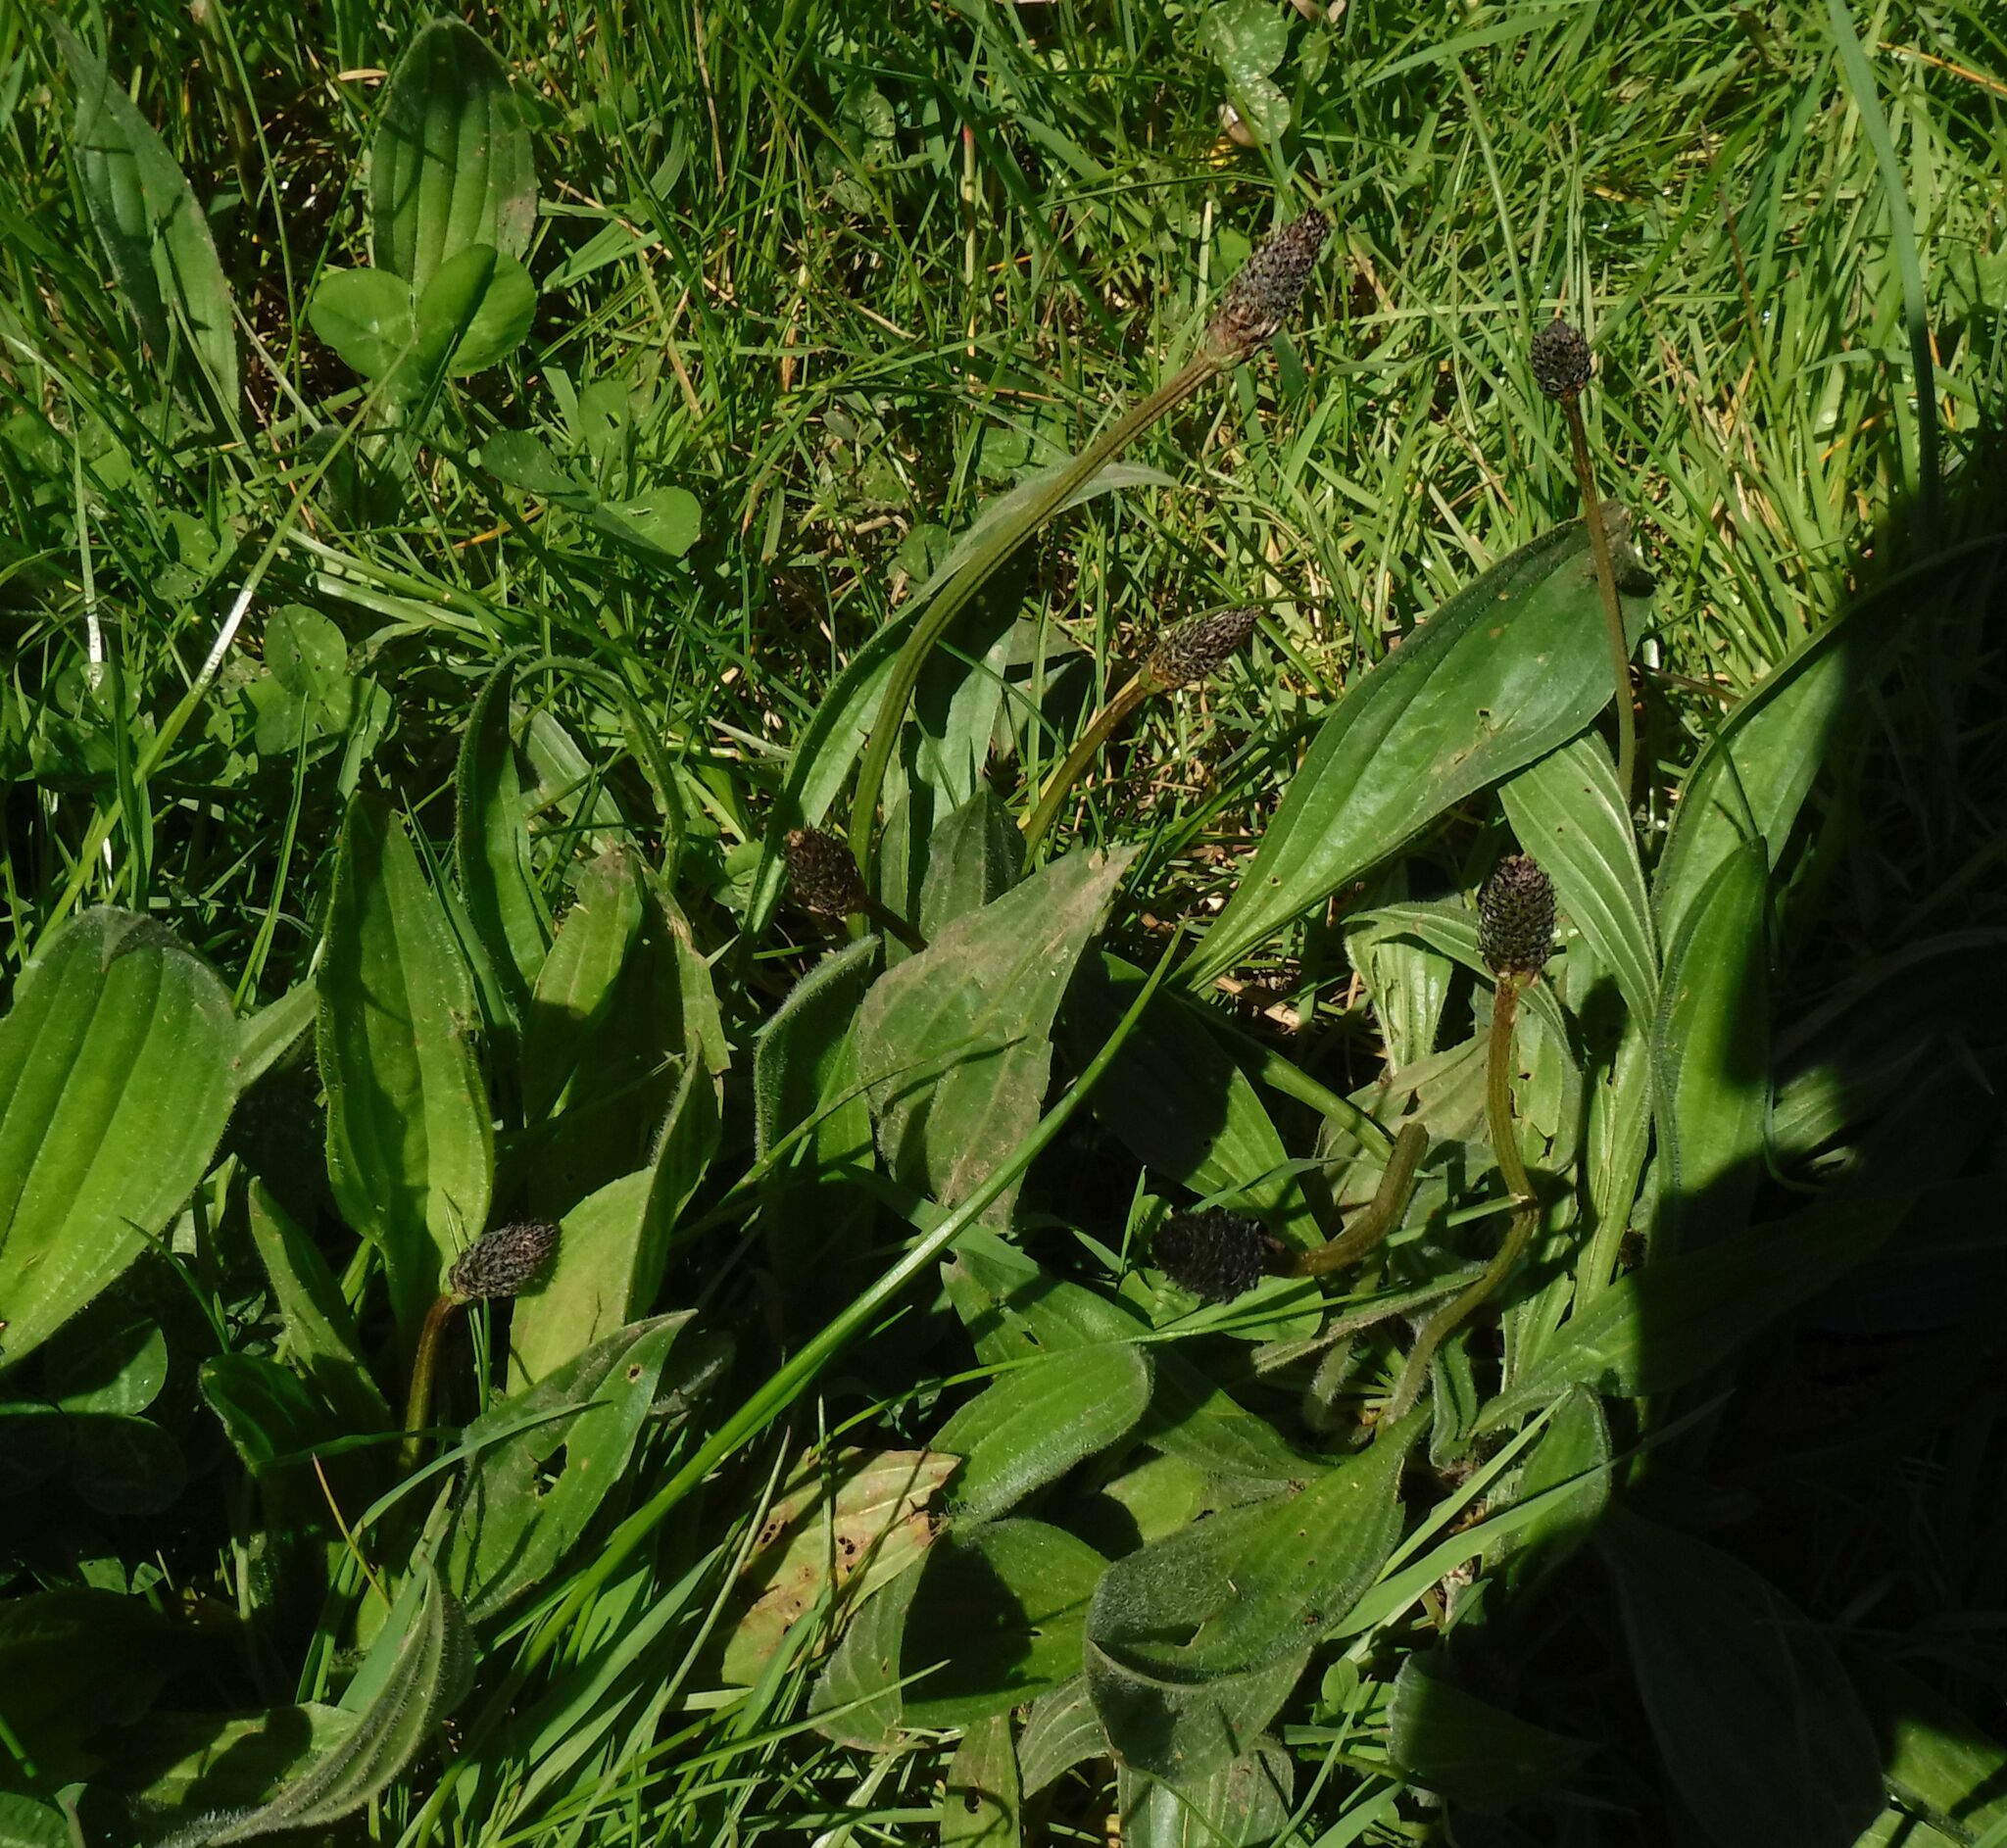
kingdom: Plantae
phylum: Tracheophyta
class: Magnoliopsida
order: Lamiales
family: Plantaginaceae
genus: Plantago
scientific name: Plantago lanceolata
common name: Ribwort plantain
